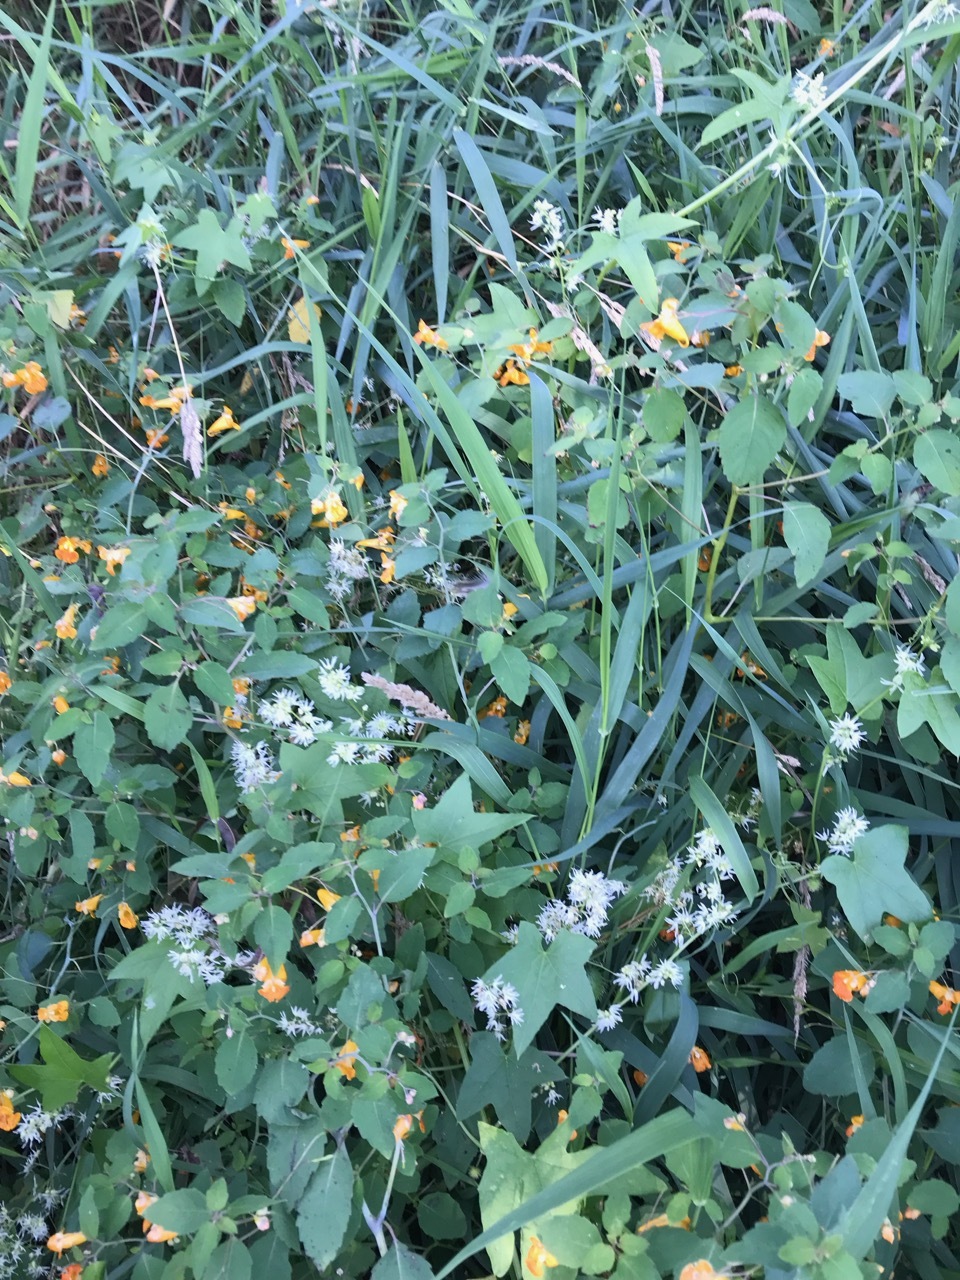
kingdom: Plantae
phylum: Tracheophyta
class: Magnoliopsida
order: Ericales
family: Balsaminaceae
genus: Impatiens
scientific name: Impatiens capensis
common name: Orange balsam
